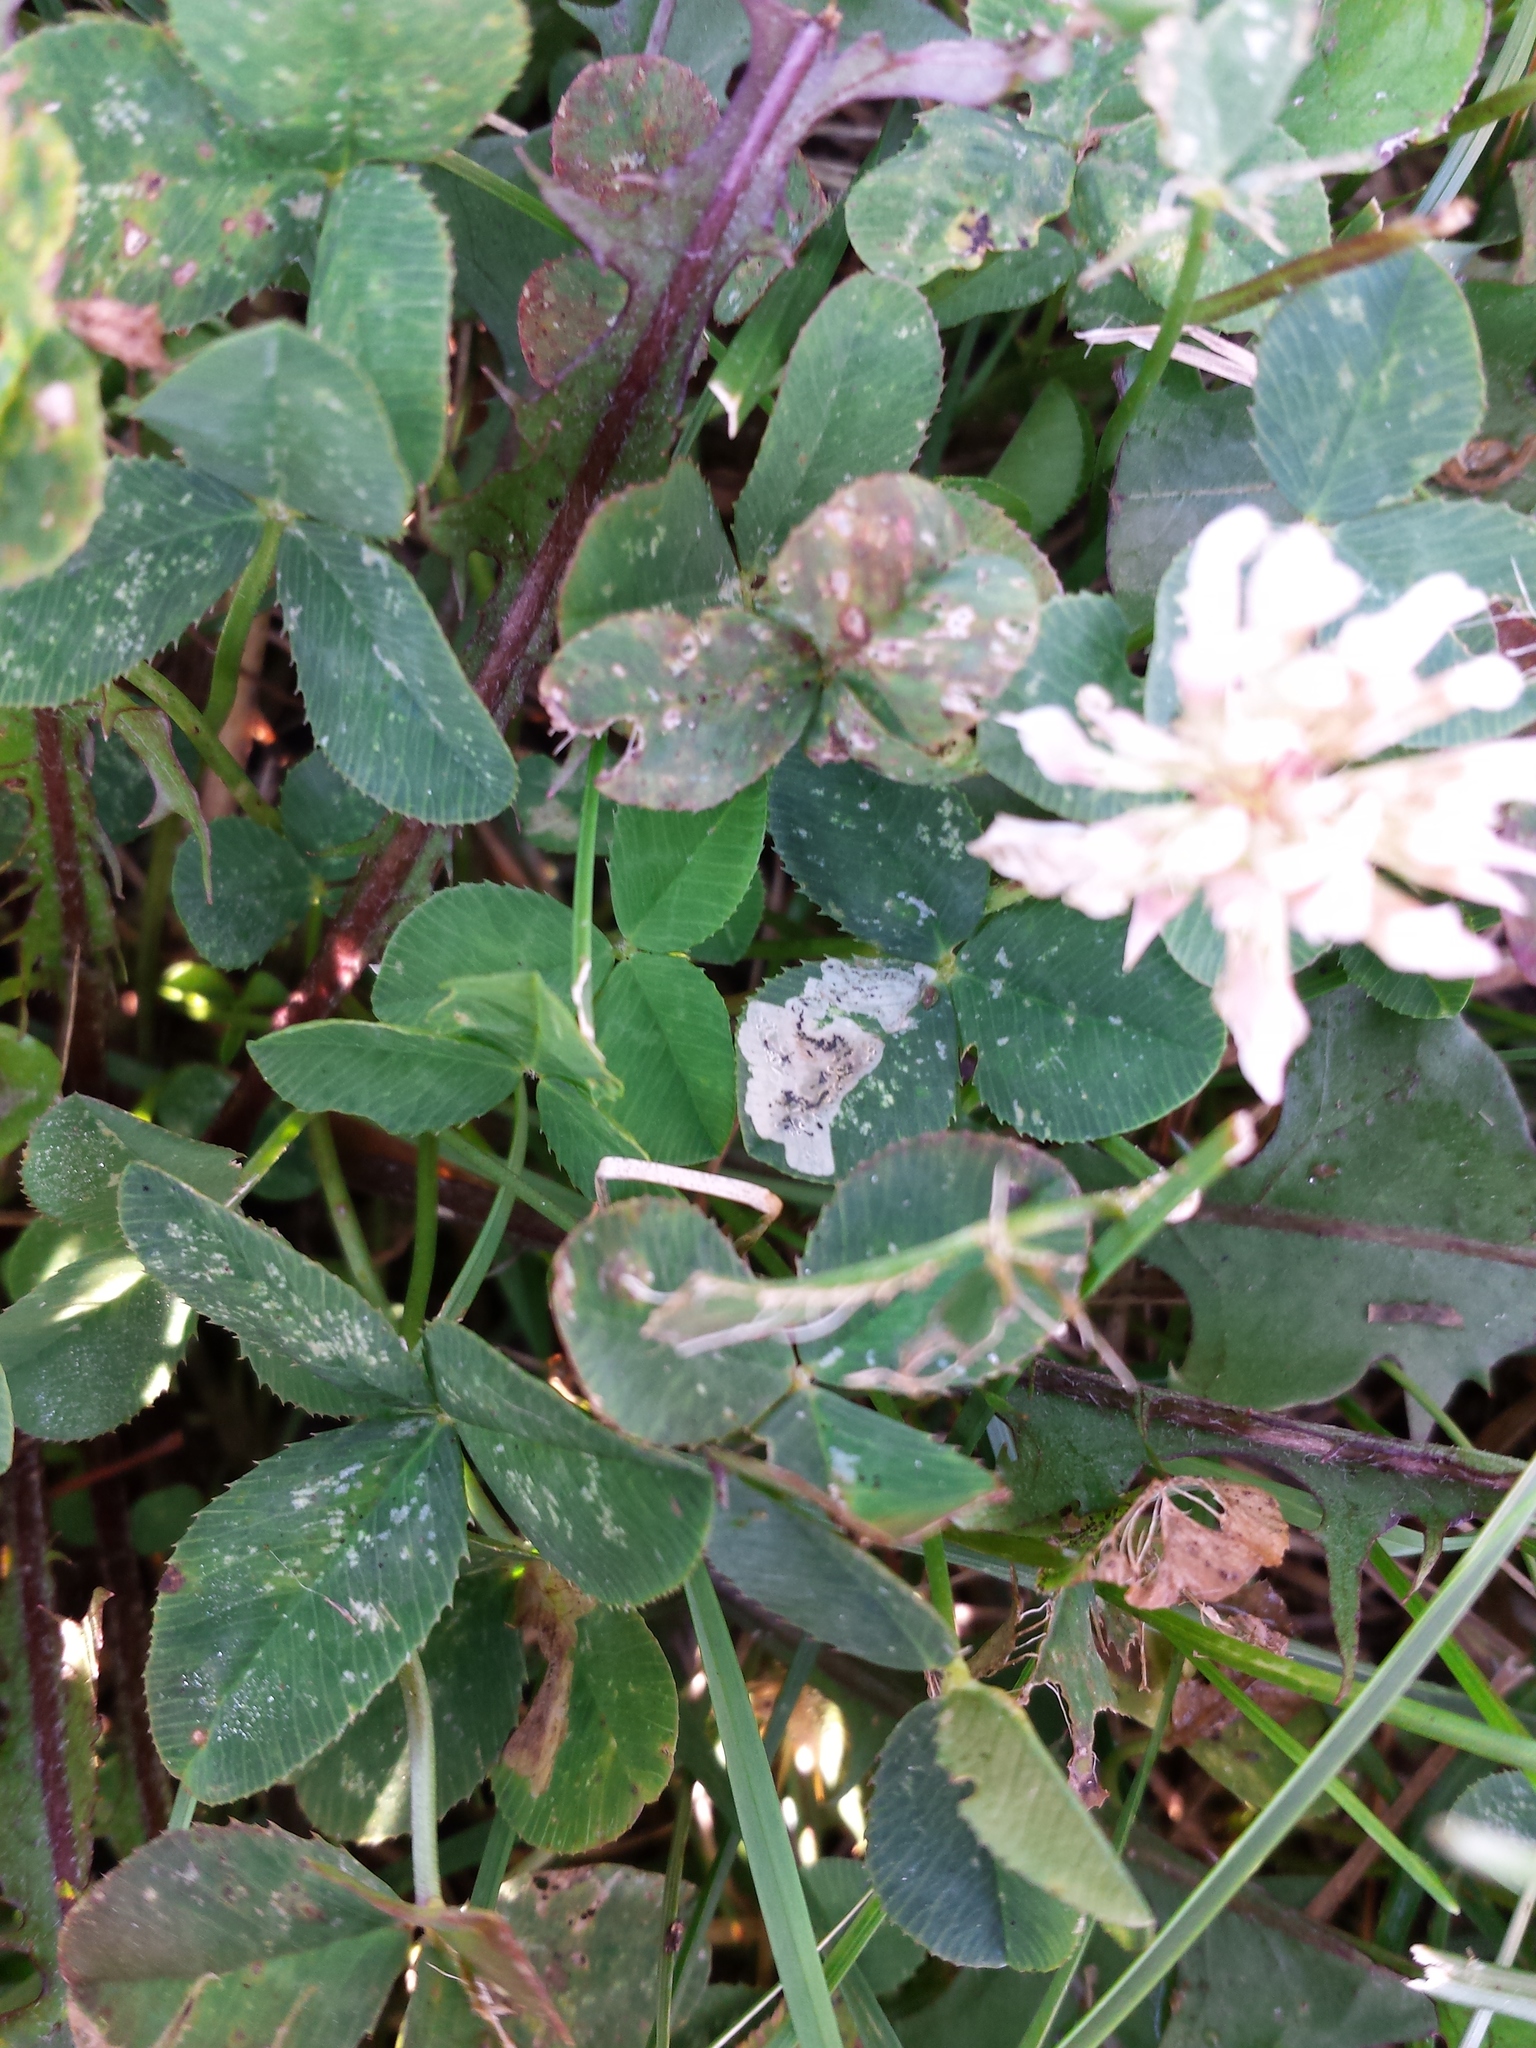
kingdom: Animalia
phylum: Arthropoda
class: Insecta
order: Diptera
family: Agromyzidae
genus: Liriomyza
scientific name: Liriomyza fricki
